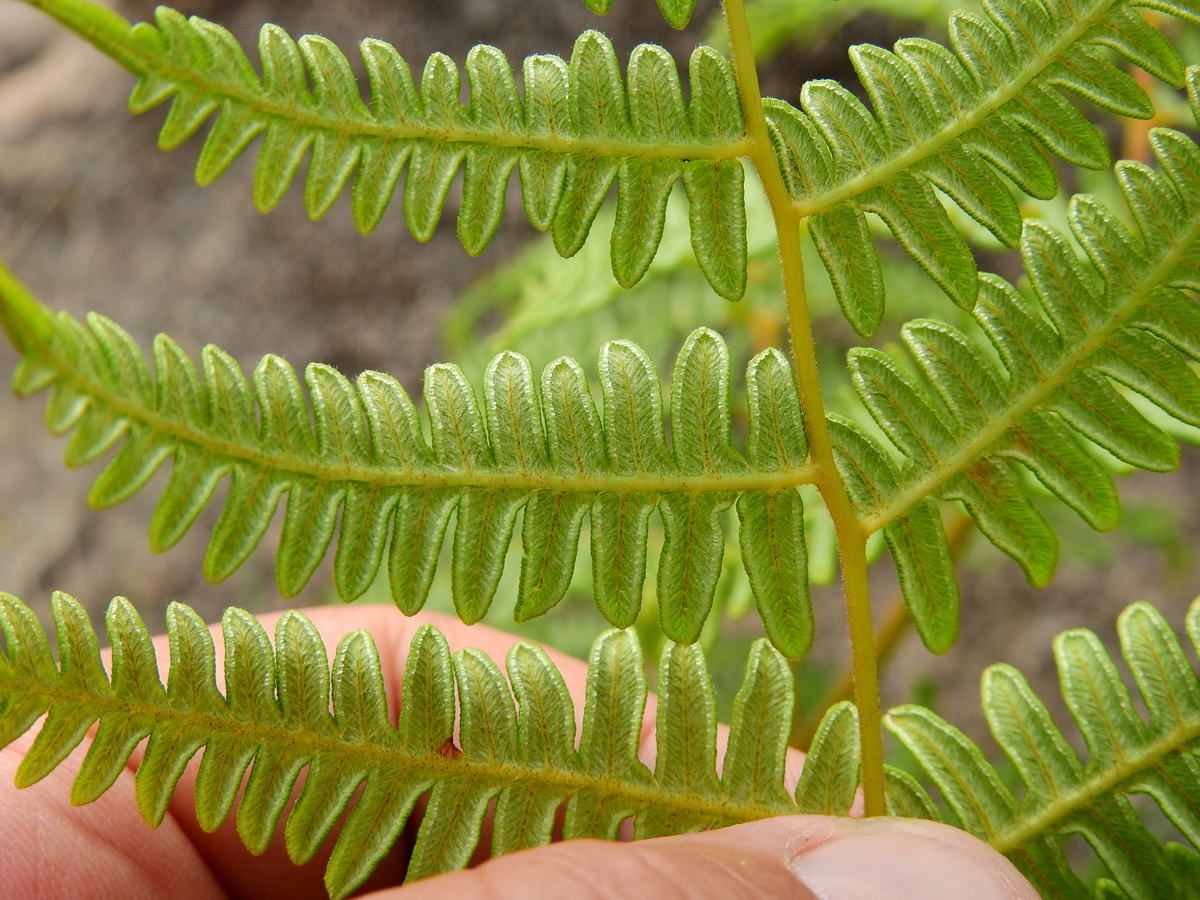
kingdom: Plantae
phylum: Tracheophyta
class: Polypodiopsida
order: Polypodiales
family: Dennstaedtiaceae
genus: Pteridium
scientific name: Pteridium esculentum
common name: Bracken fern
